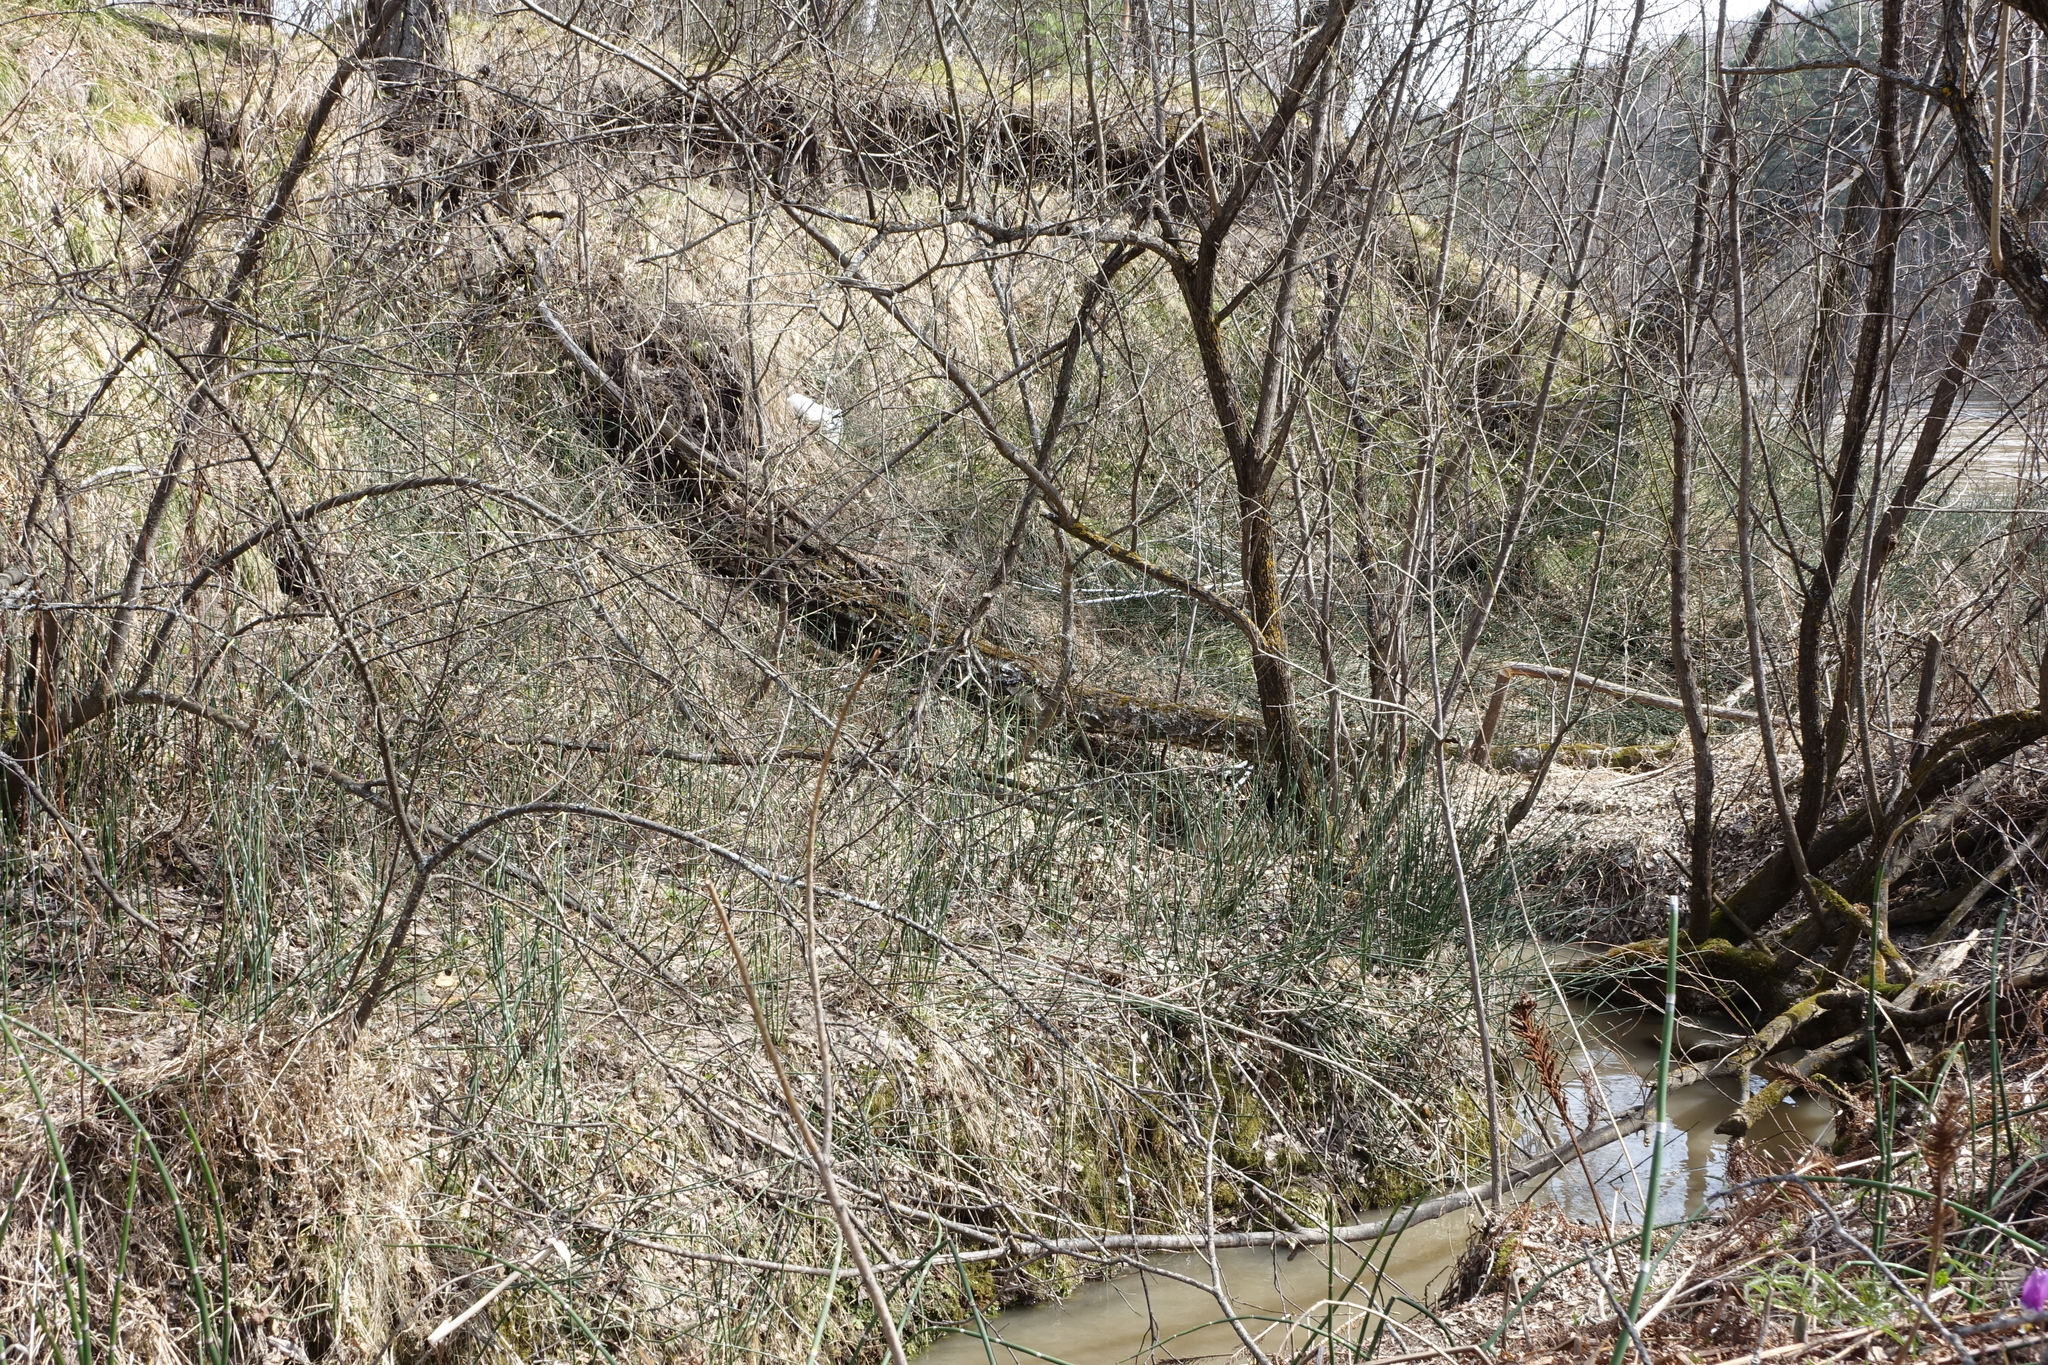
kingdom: Plantae
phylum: Tracheophyta
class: Polypodiopsida
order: Equisetales
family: Equisetaceae
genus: Equisetum
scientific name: Equisetum hyemale
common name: Rough horsetail
